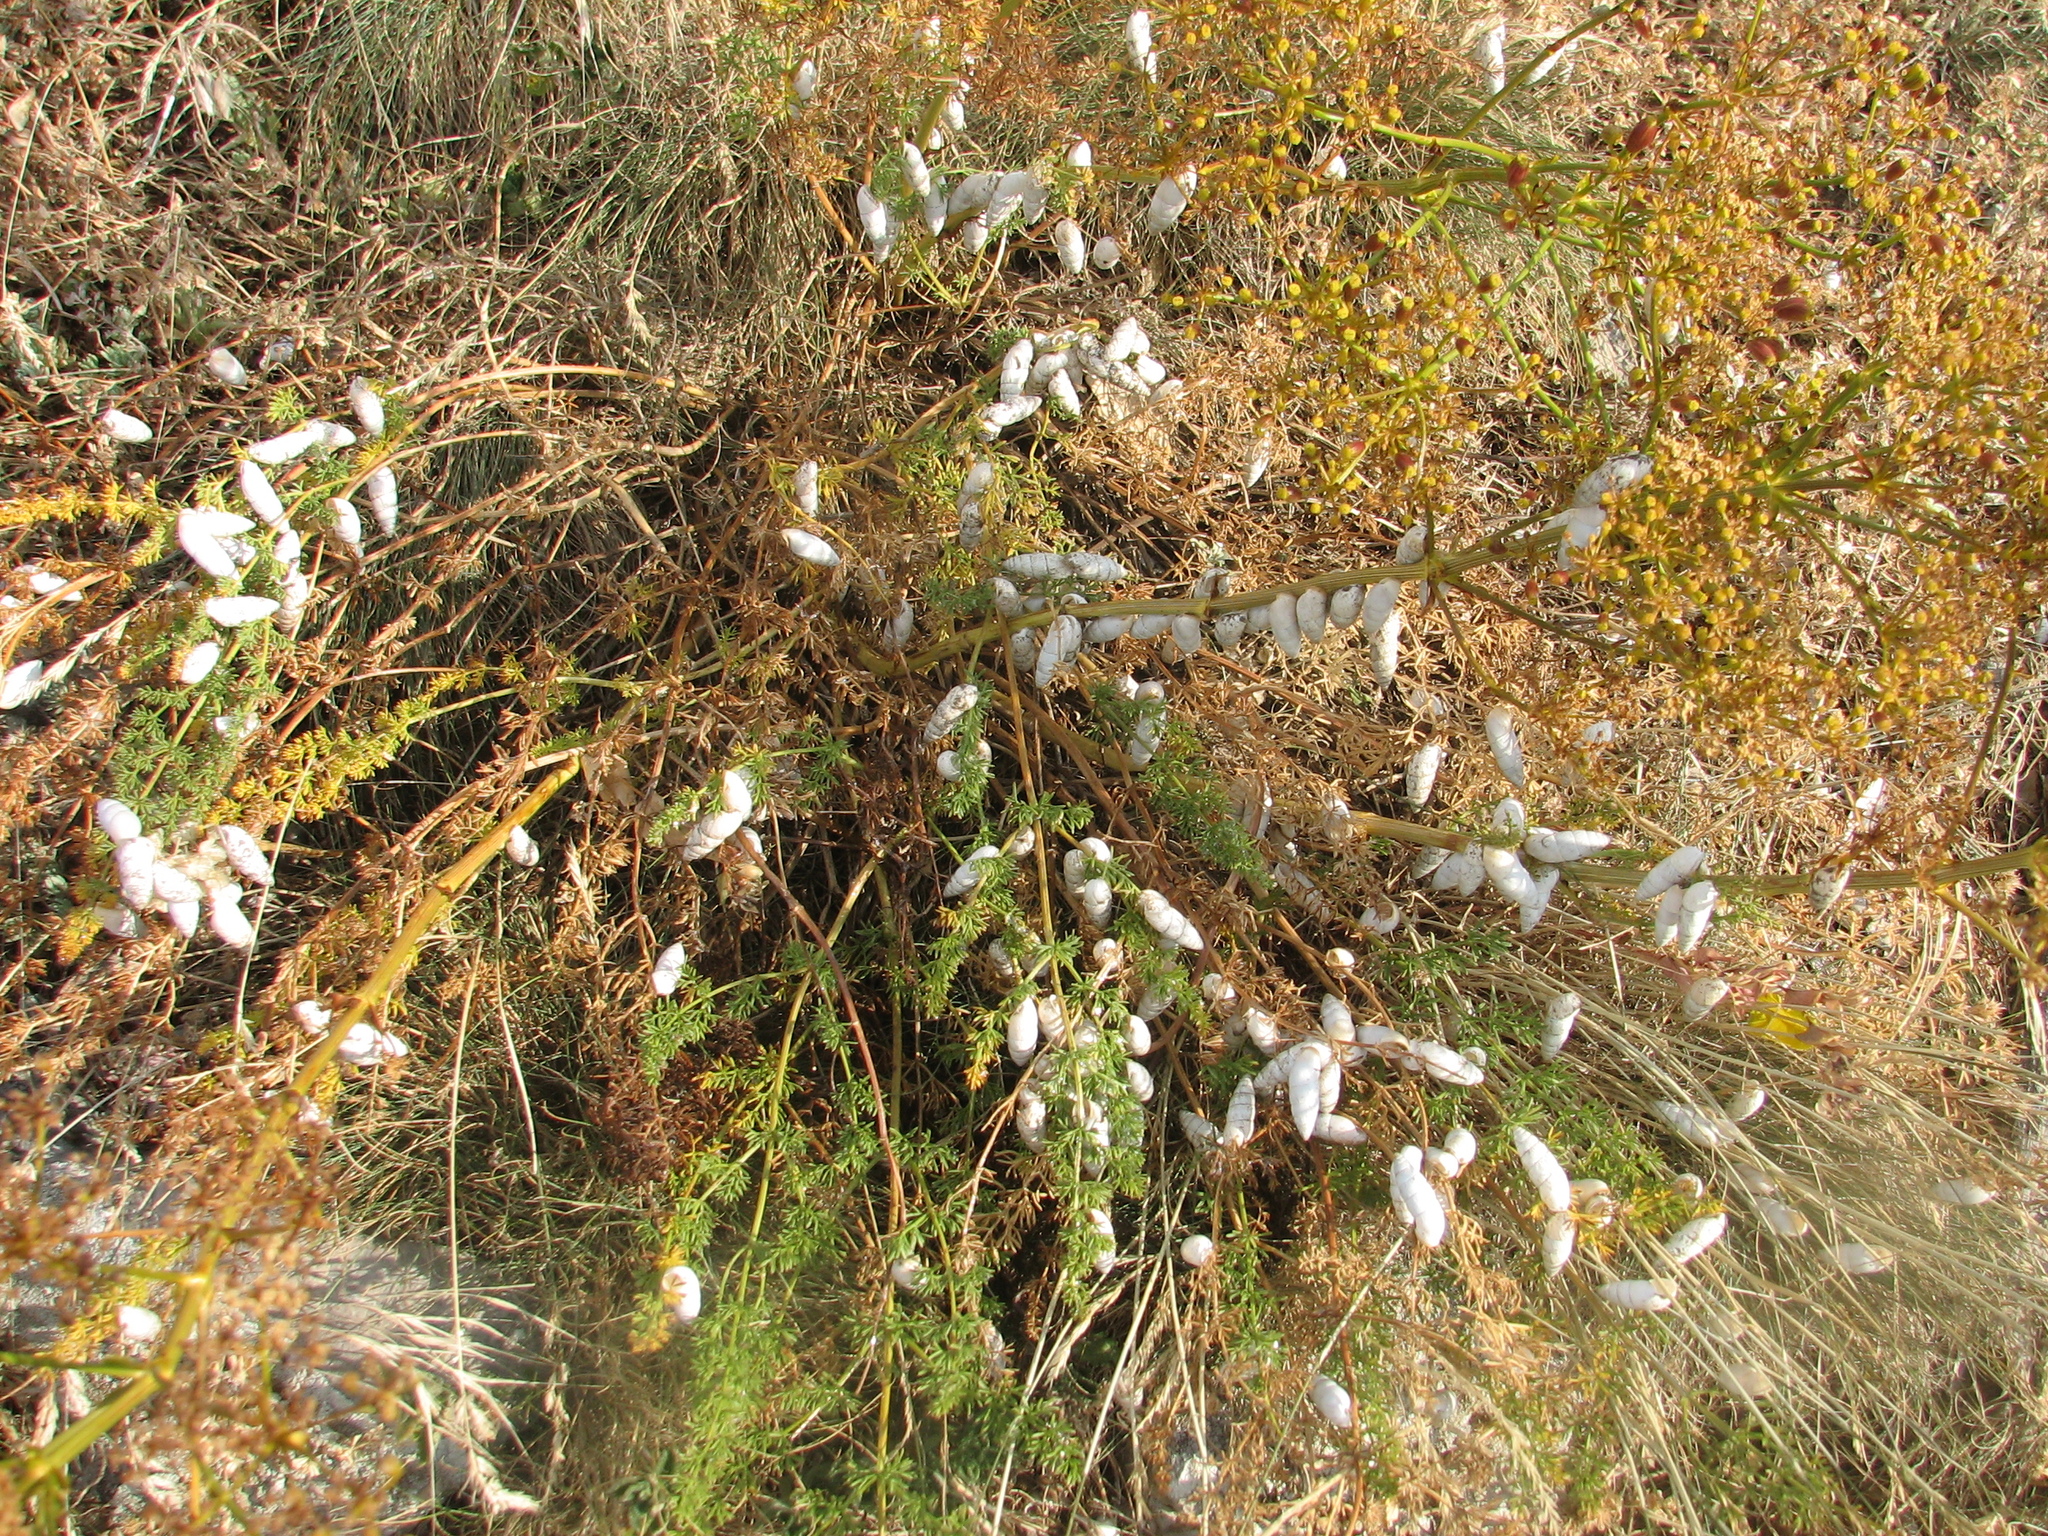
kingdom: Plantae
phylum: Tracheophyta
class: Magnoliopsida
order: Apiales
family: Apiaceae
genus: Ferulago
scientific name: Ferulago galbanifera
